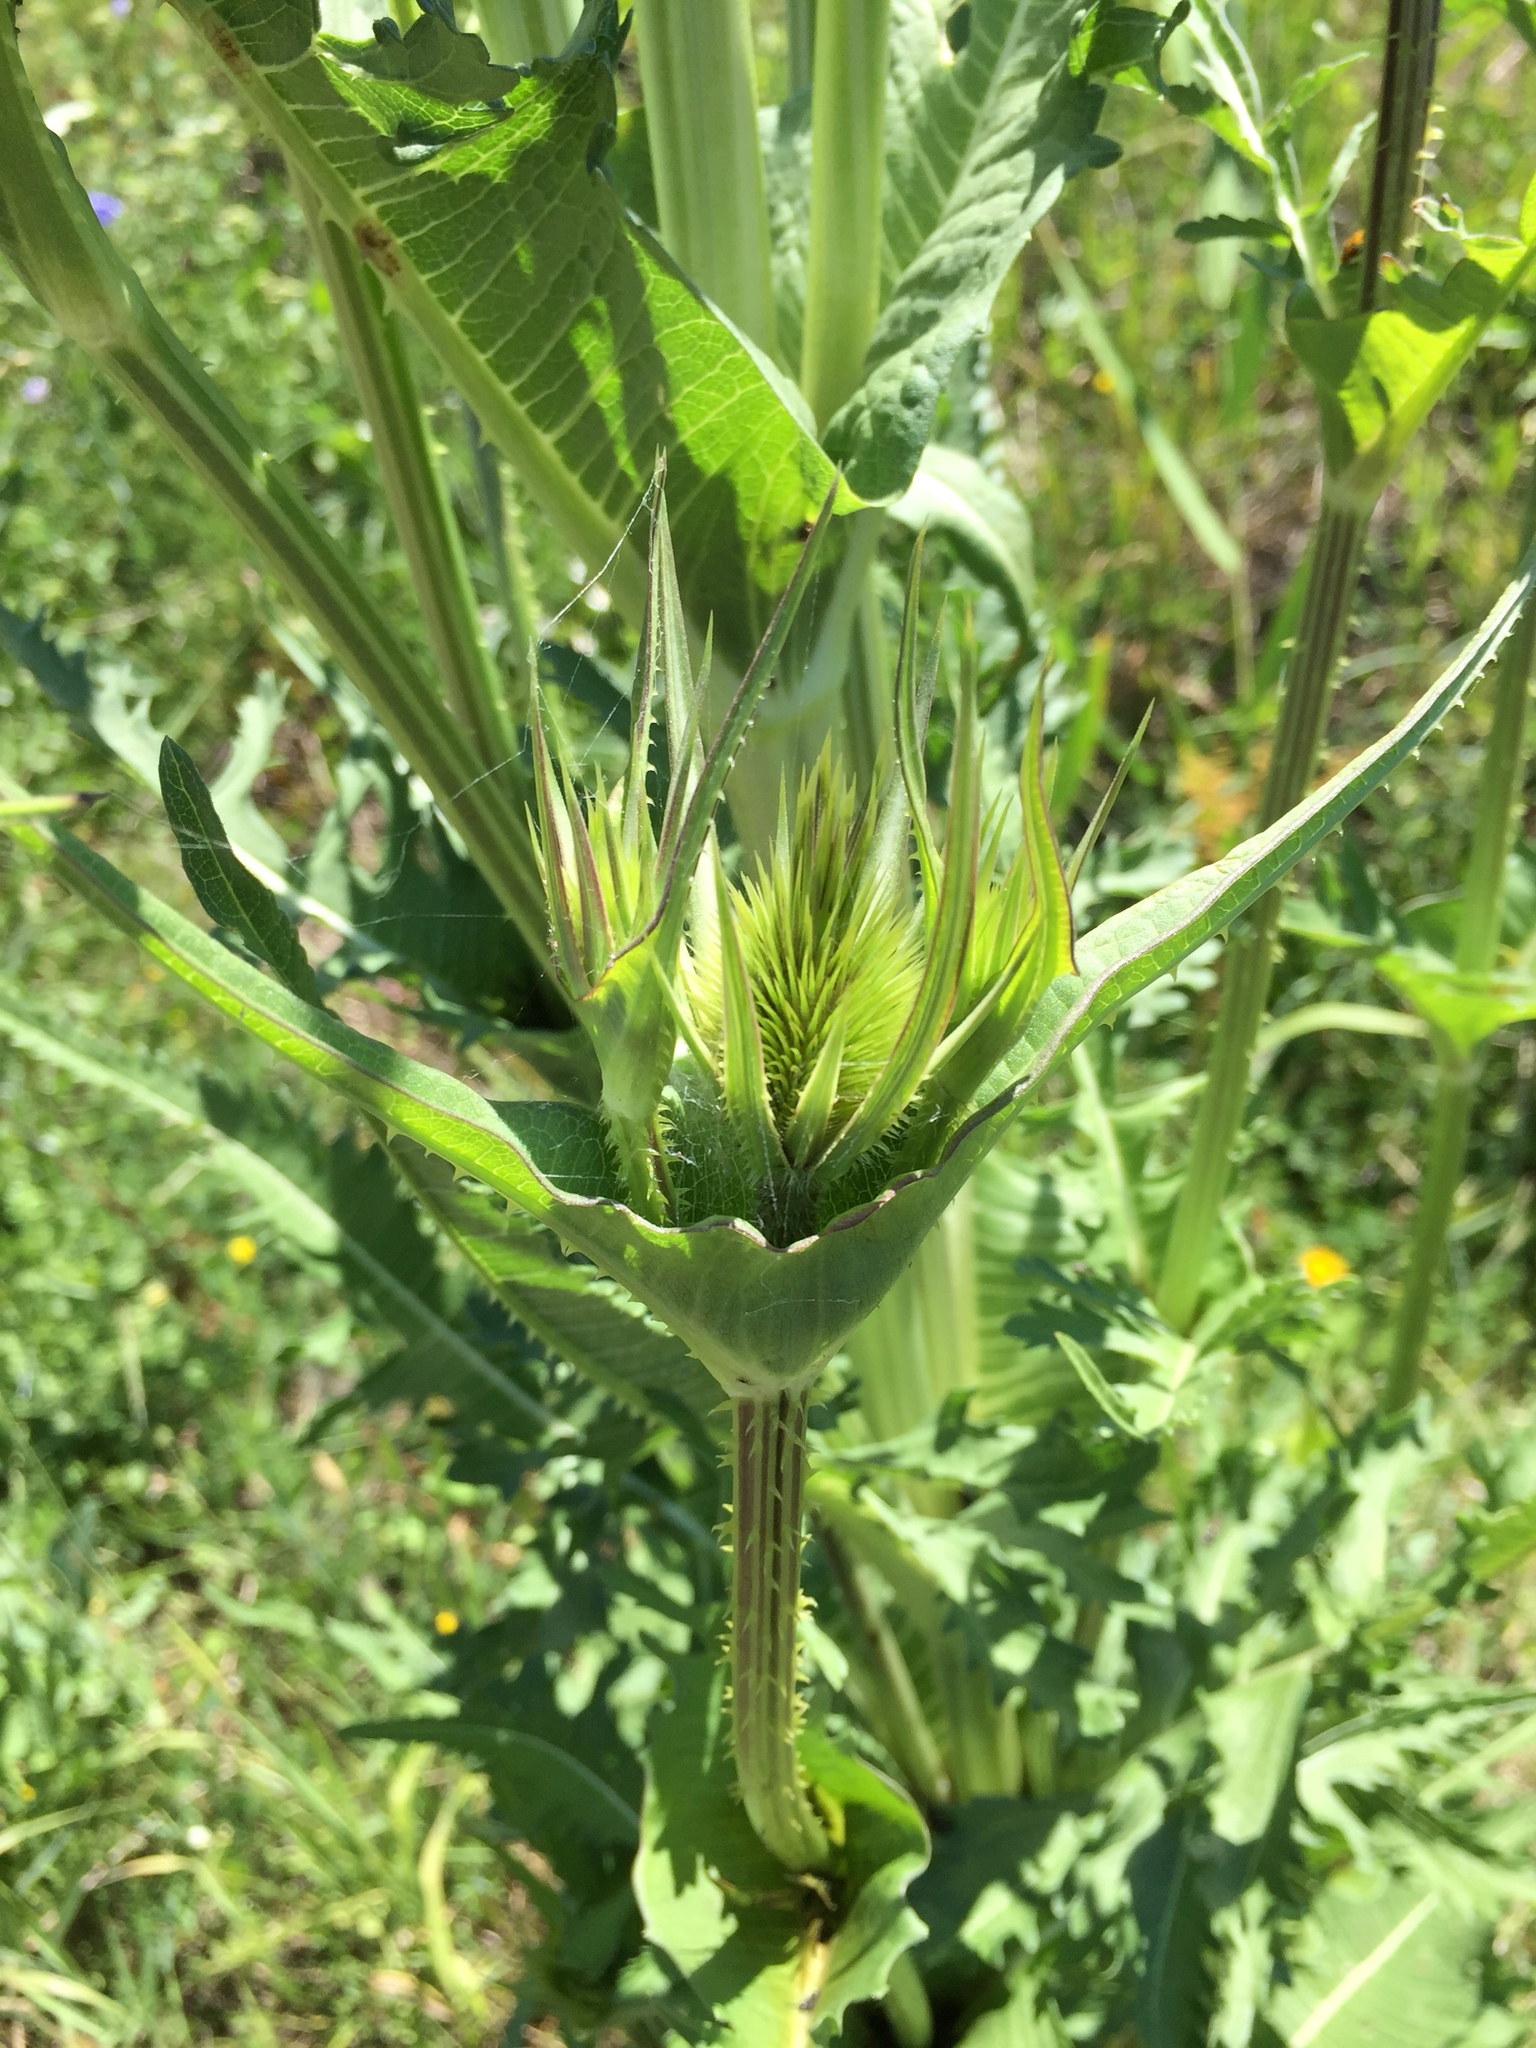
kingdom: Plantae
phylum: Tracheophyta
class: Magnoliopsida
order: Dipsacales
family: Caprifoliaceae
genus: Dipsacus
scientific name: Dipsacus laciniatus
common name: Cut-leaved teasel
